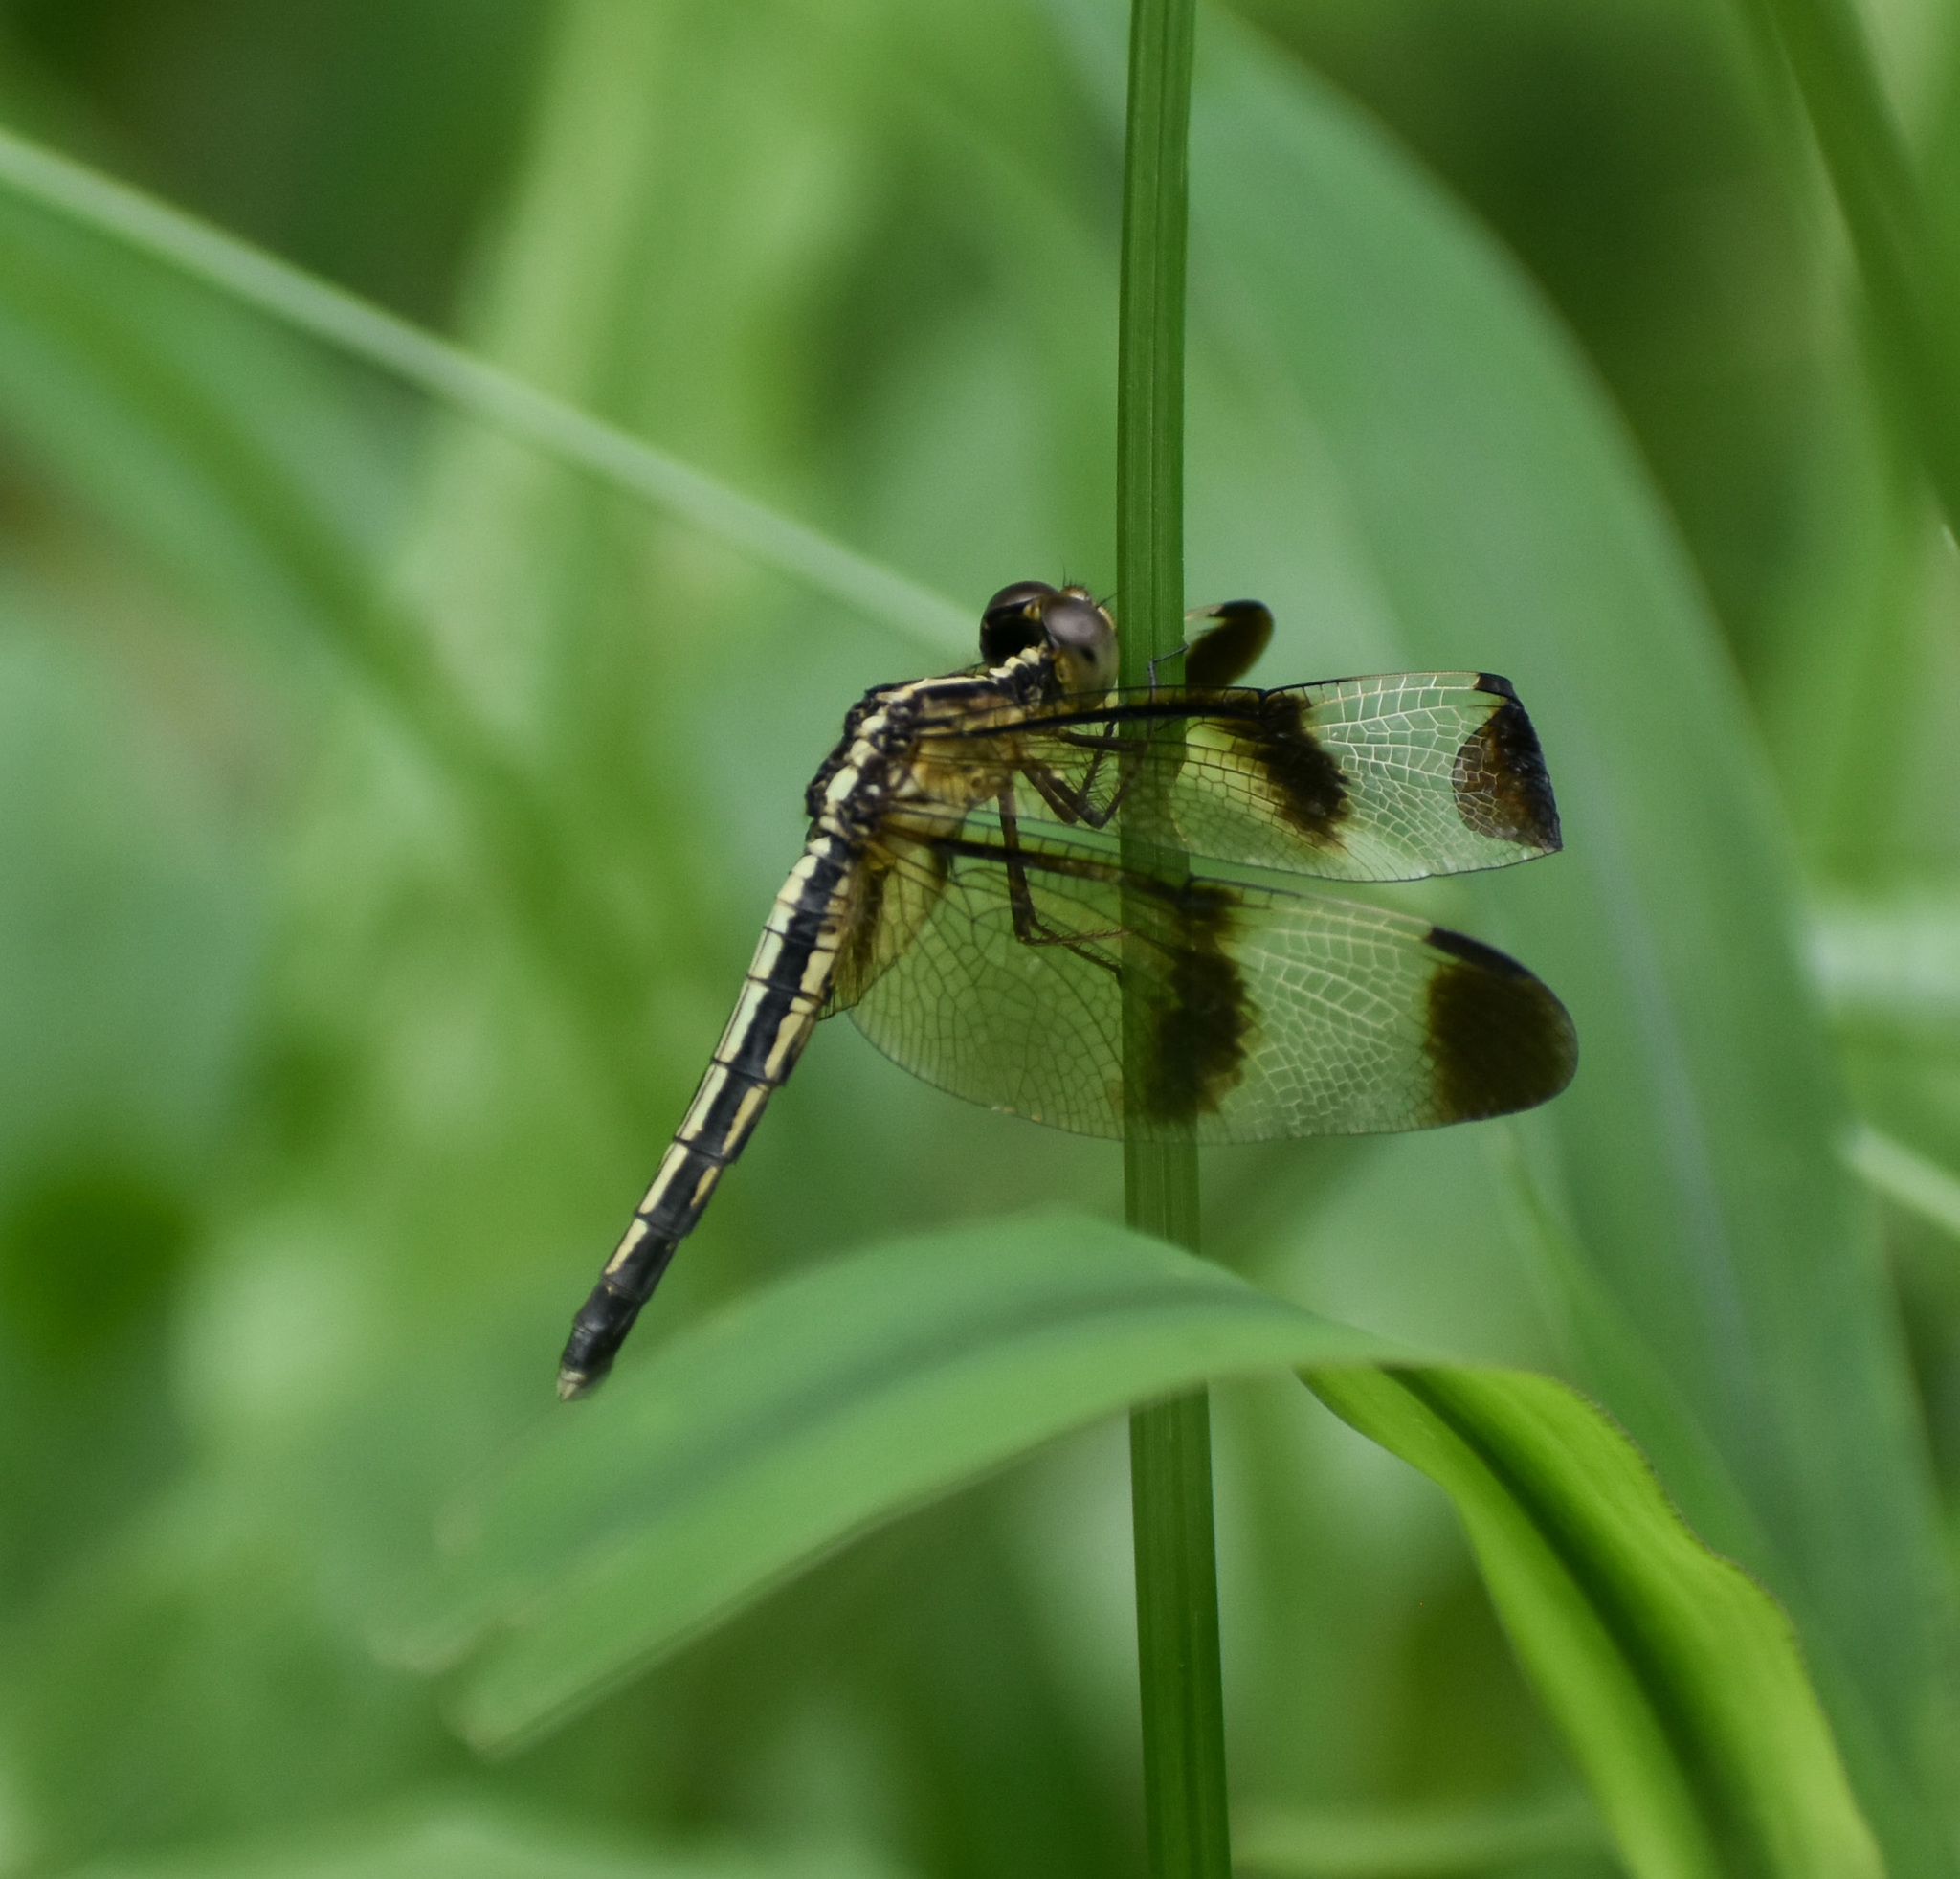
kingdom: Animalia
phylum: Arthropoda
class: Insecta
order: Odonata
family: Libellulidae
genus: Neurothemis
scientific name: Neurothemis tullia
